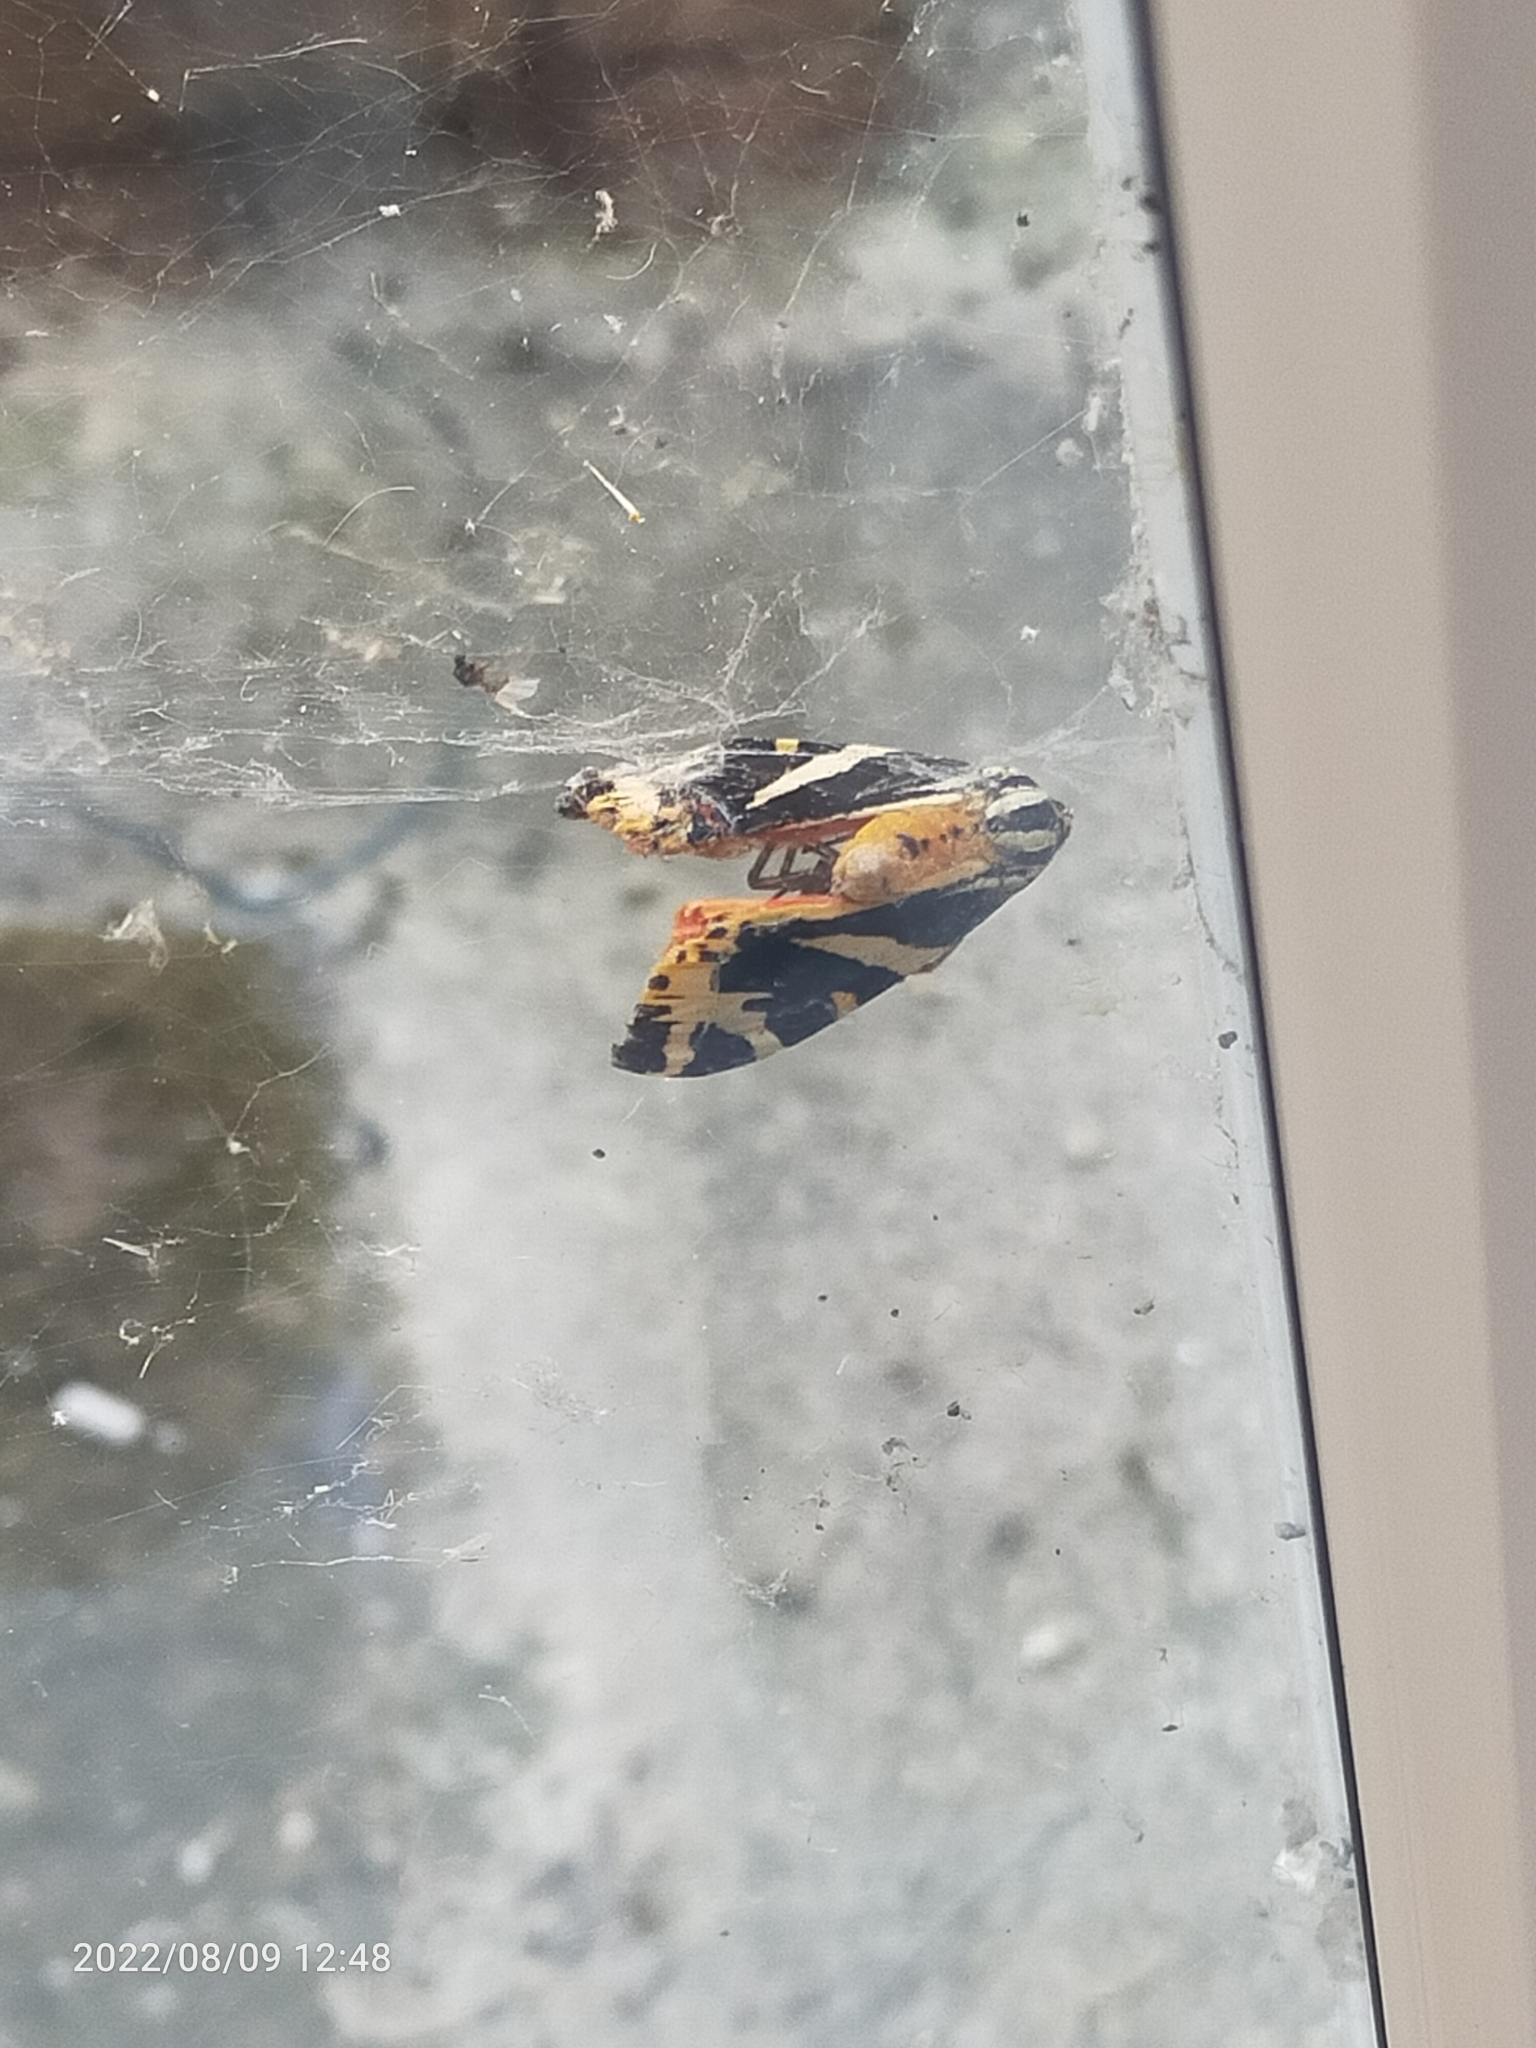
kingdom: Animalia
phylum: Arthropoda
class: Insecta
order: Lepidoptera
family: Erebidae
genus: Euplagia
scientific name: Euplagia quadripunctaria
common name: Jersey tiger
